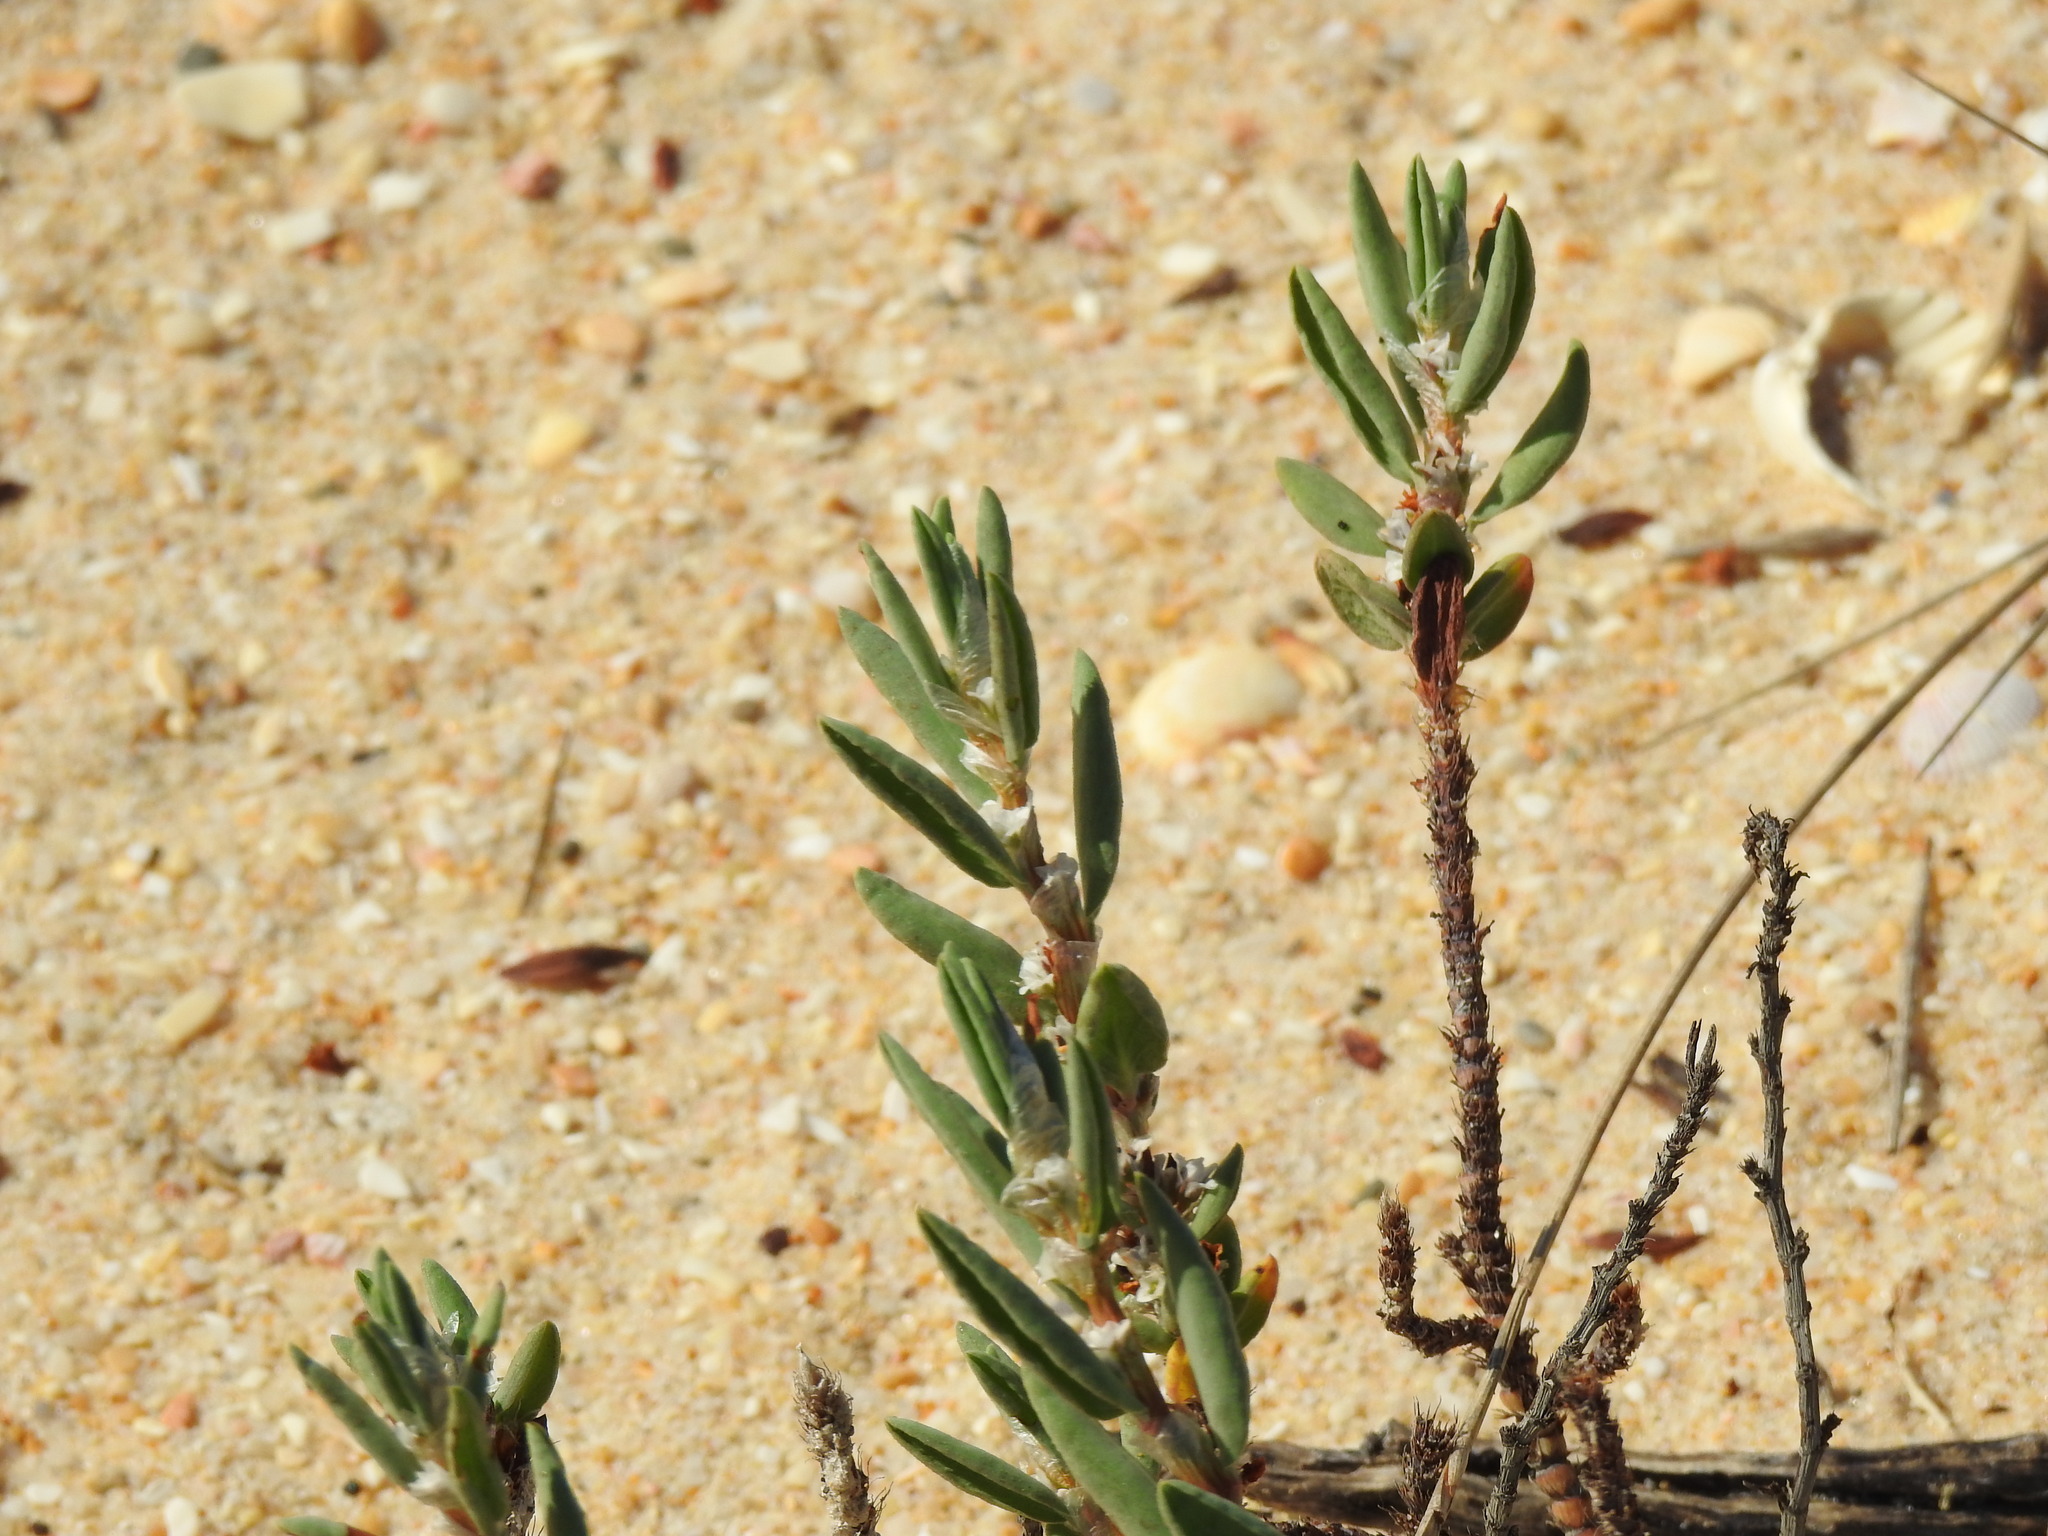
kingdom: Plantae
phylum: Tracheophyta
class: Magnoliopsida
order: Caryophyllales
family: Polygonaceae
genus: Polygonum
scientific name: Polygonum maritimum
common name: Sea knotgrass
